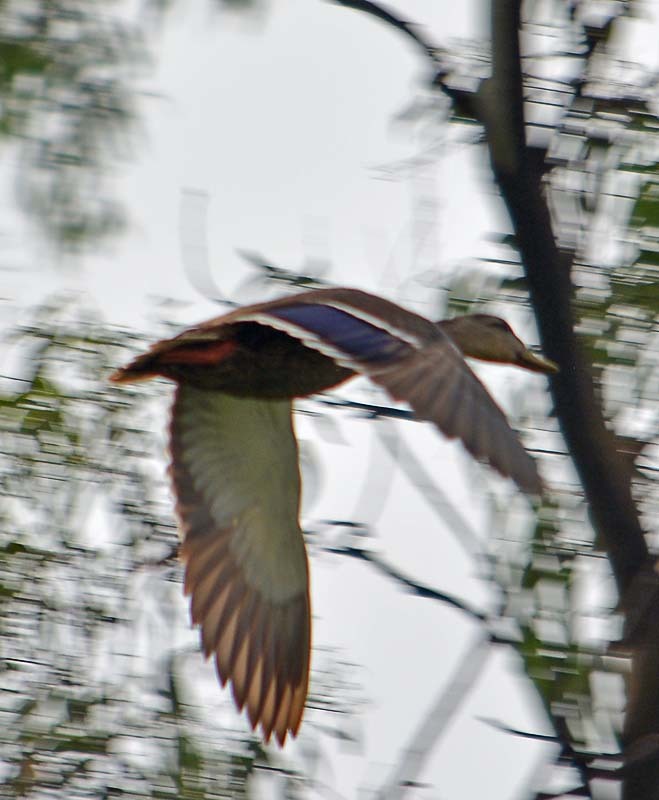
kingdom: Animalia
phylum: Chordata
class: Aves
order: Anseriformes
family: Anatidae
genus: Anas
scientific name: Anas diazi
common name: Mexican duck
